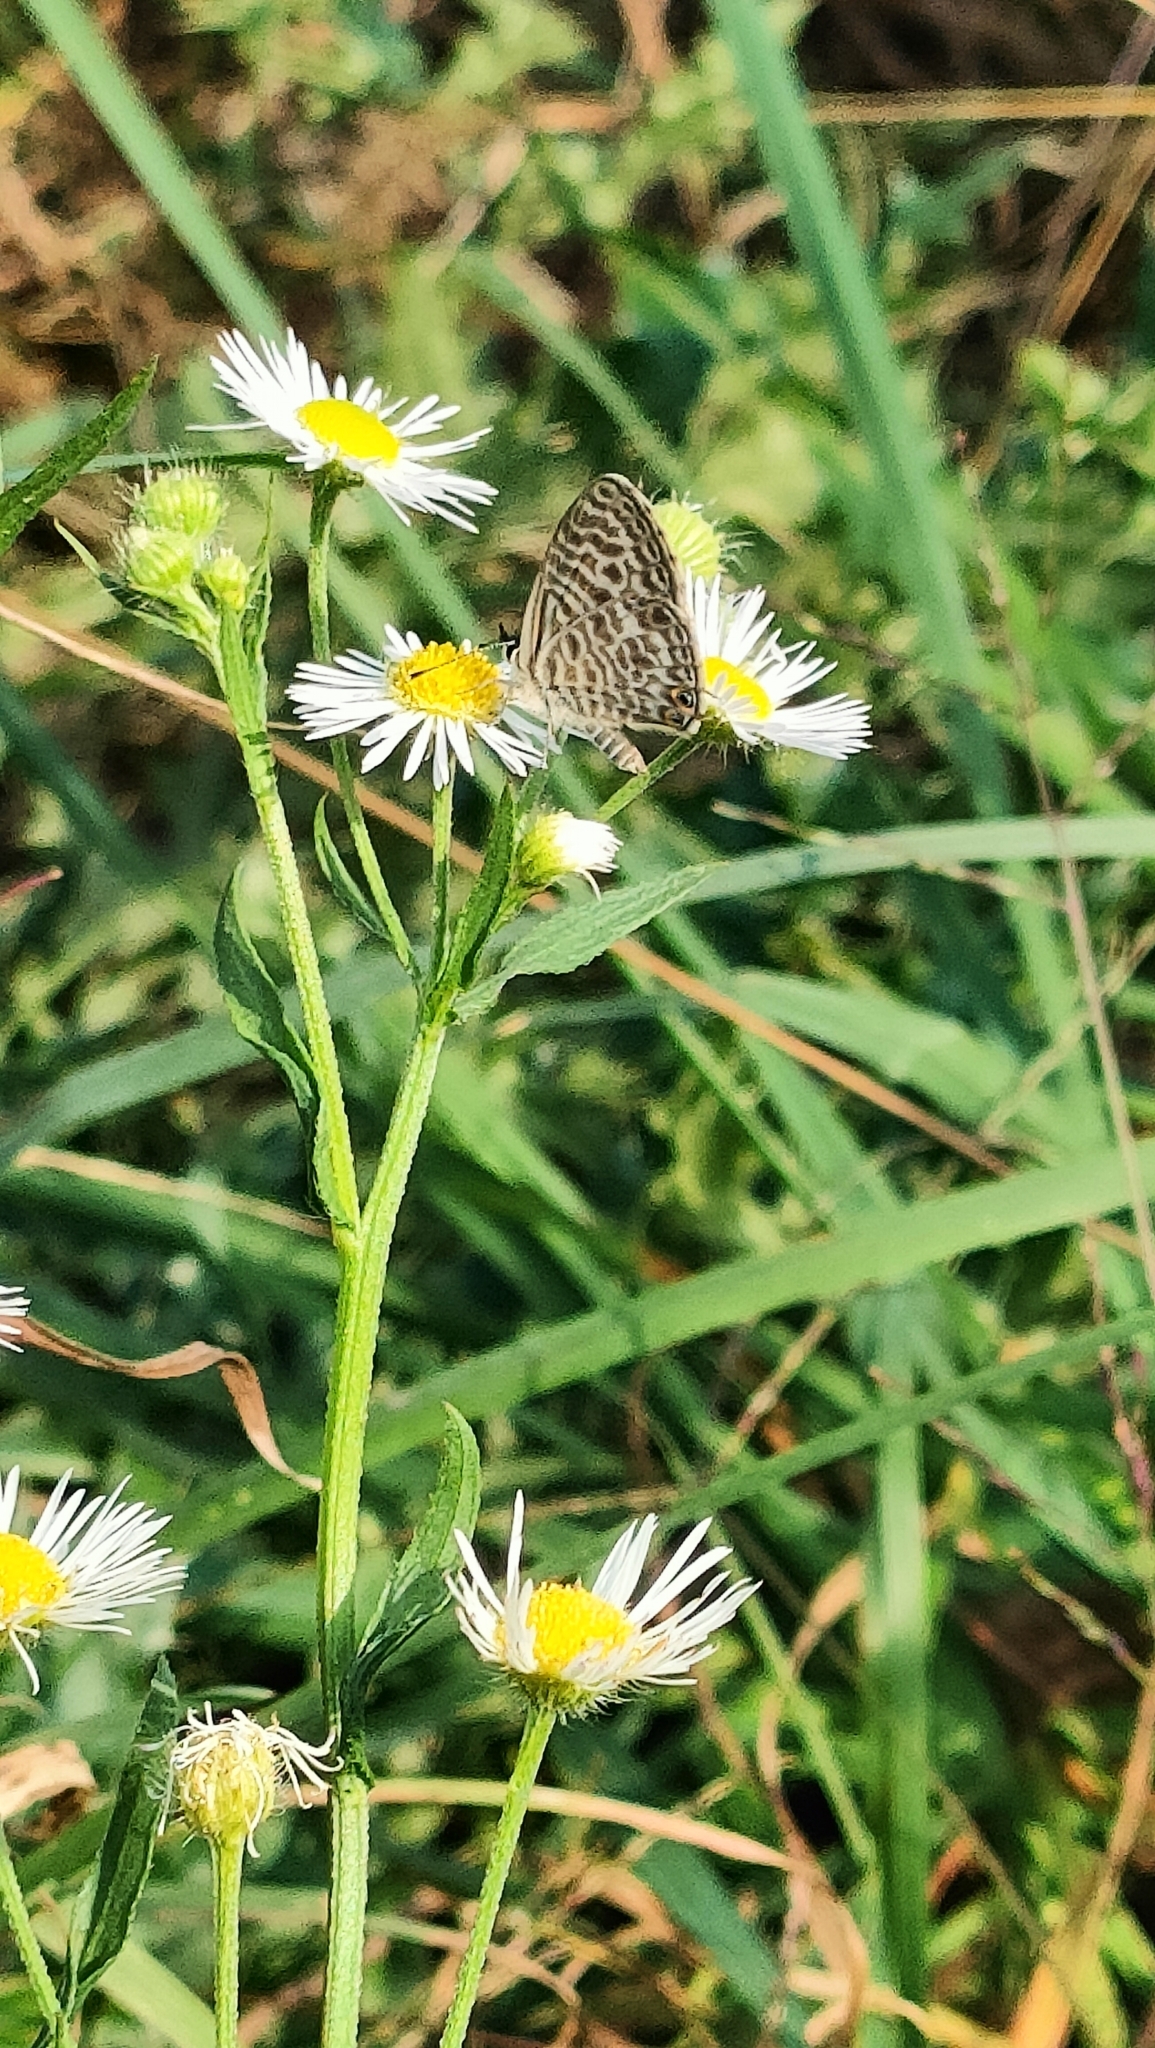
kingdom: Animalia
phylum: Arthropoda
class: Insecta
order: Lepidoptera
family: Lycaenidae
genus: Leptotes
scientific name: Leptotes pirithous
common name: Lang's short-tailed blue
